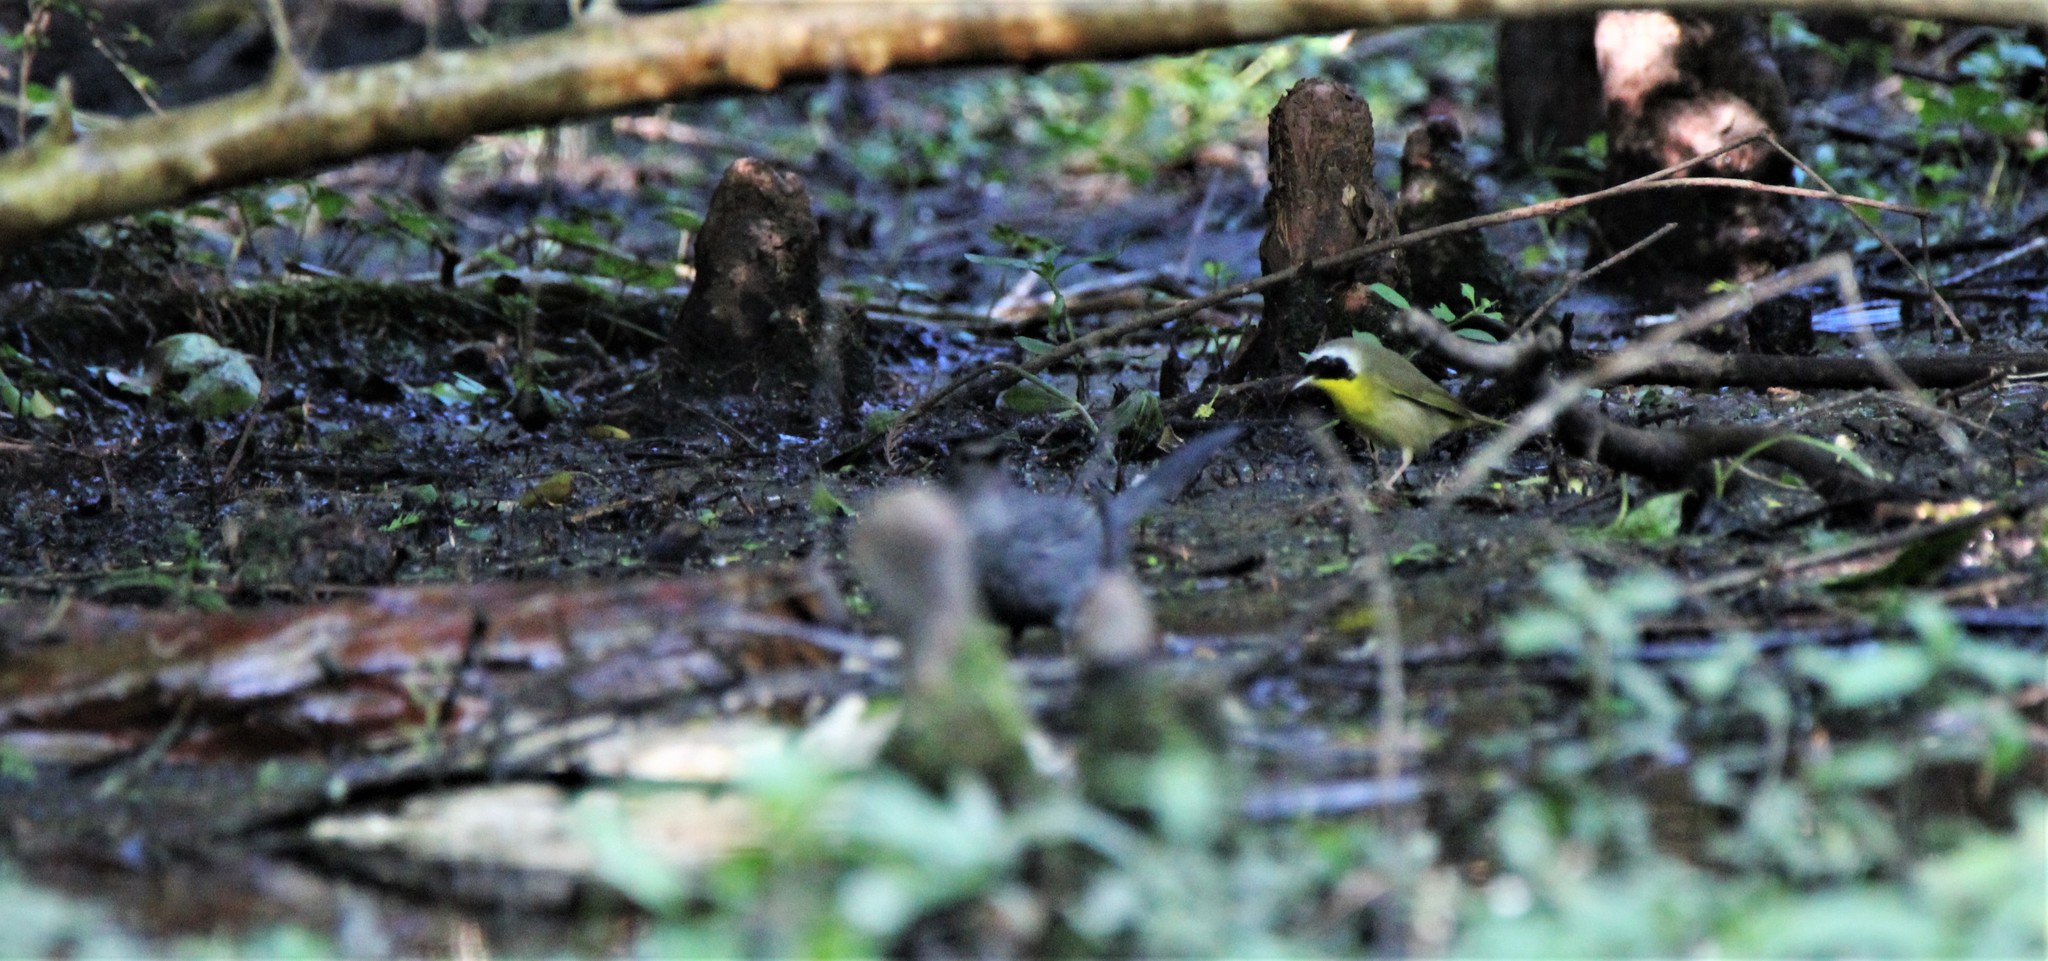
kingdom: Animalia
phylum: Chordata
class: Aves
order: Passeriformes
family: Parulidae
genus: Geothlypis
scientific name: Geothlypis trichas
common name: Common yellowthroat
